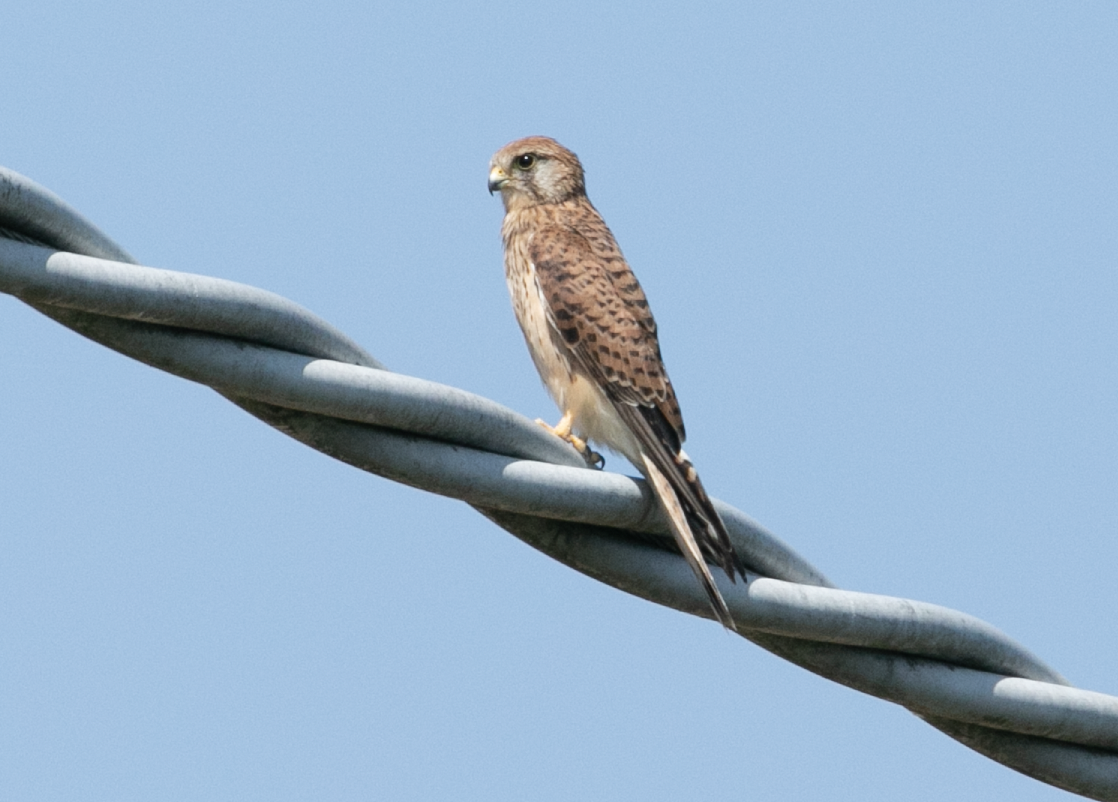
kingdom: Animalia
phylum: Chordata
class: Aves
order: Falconiformes
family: Falconidae
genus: Falco
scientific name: Falco tinnunculus
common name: Common kestrel
